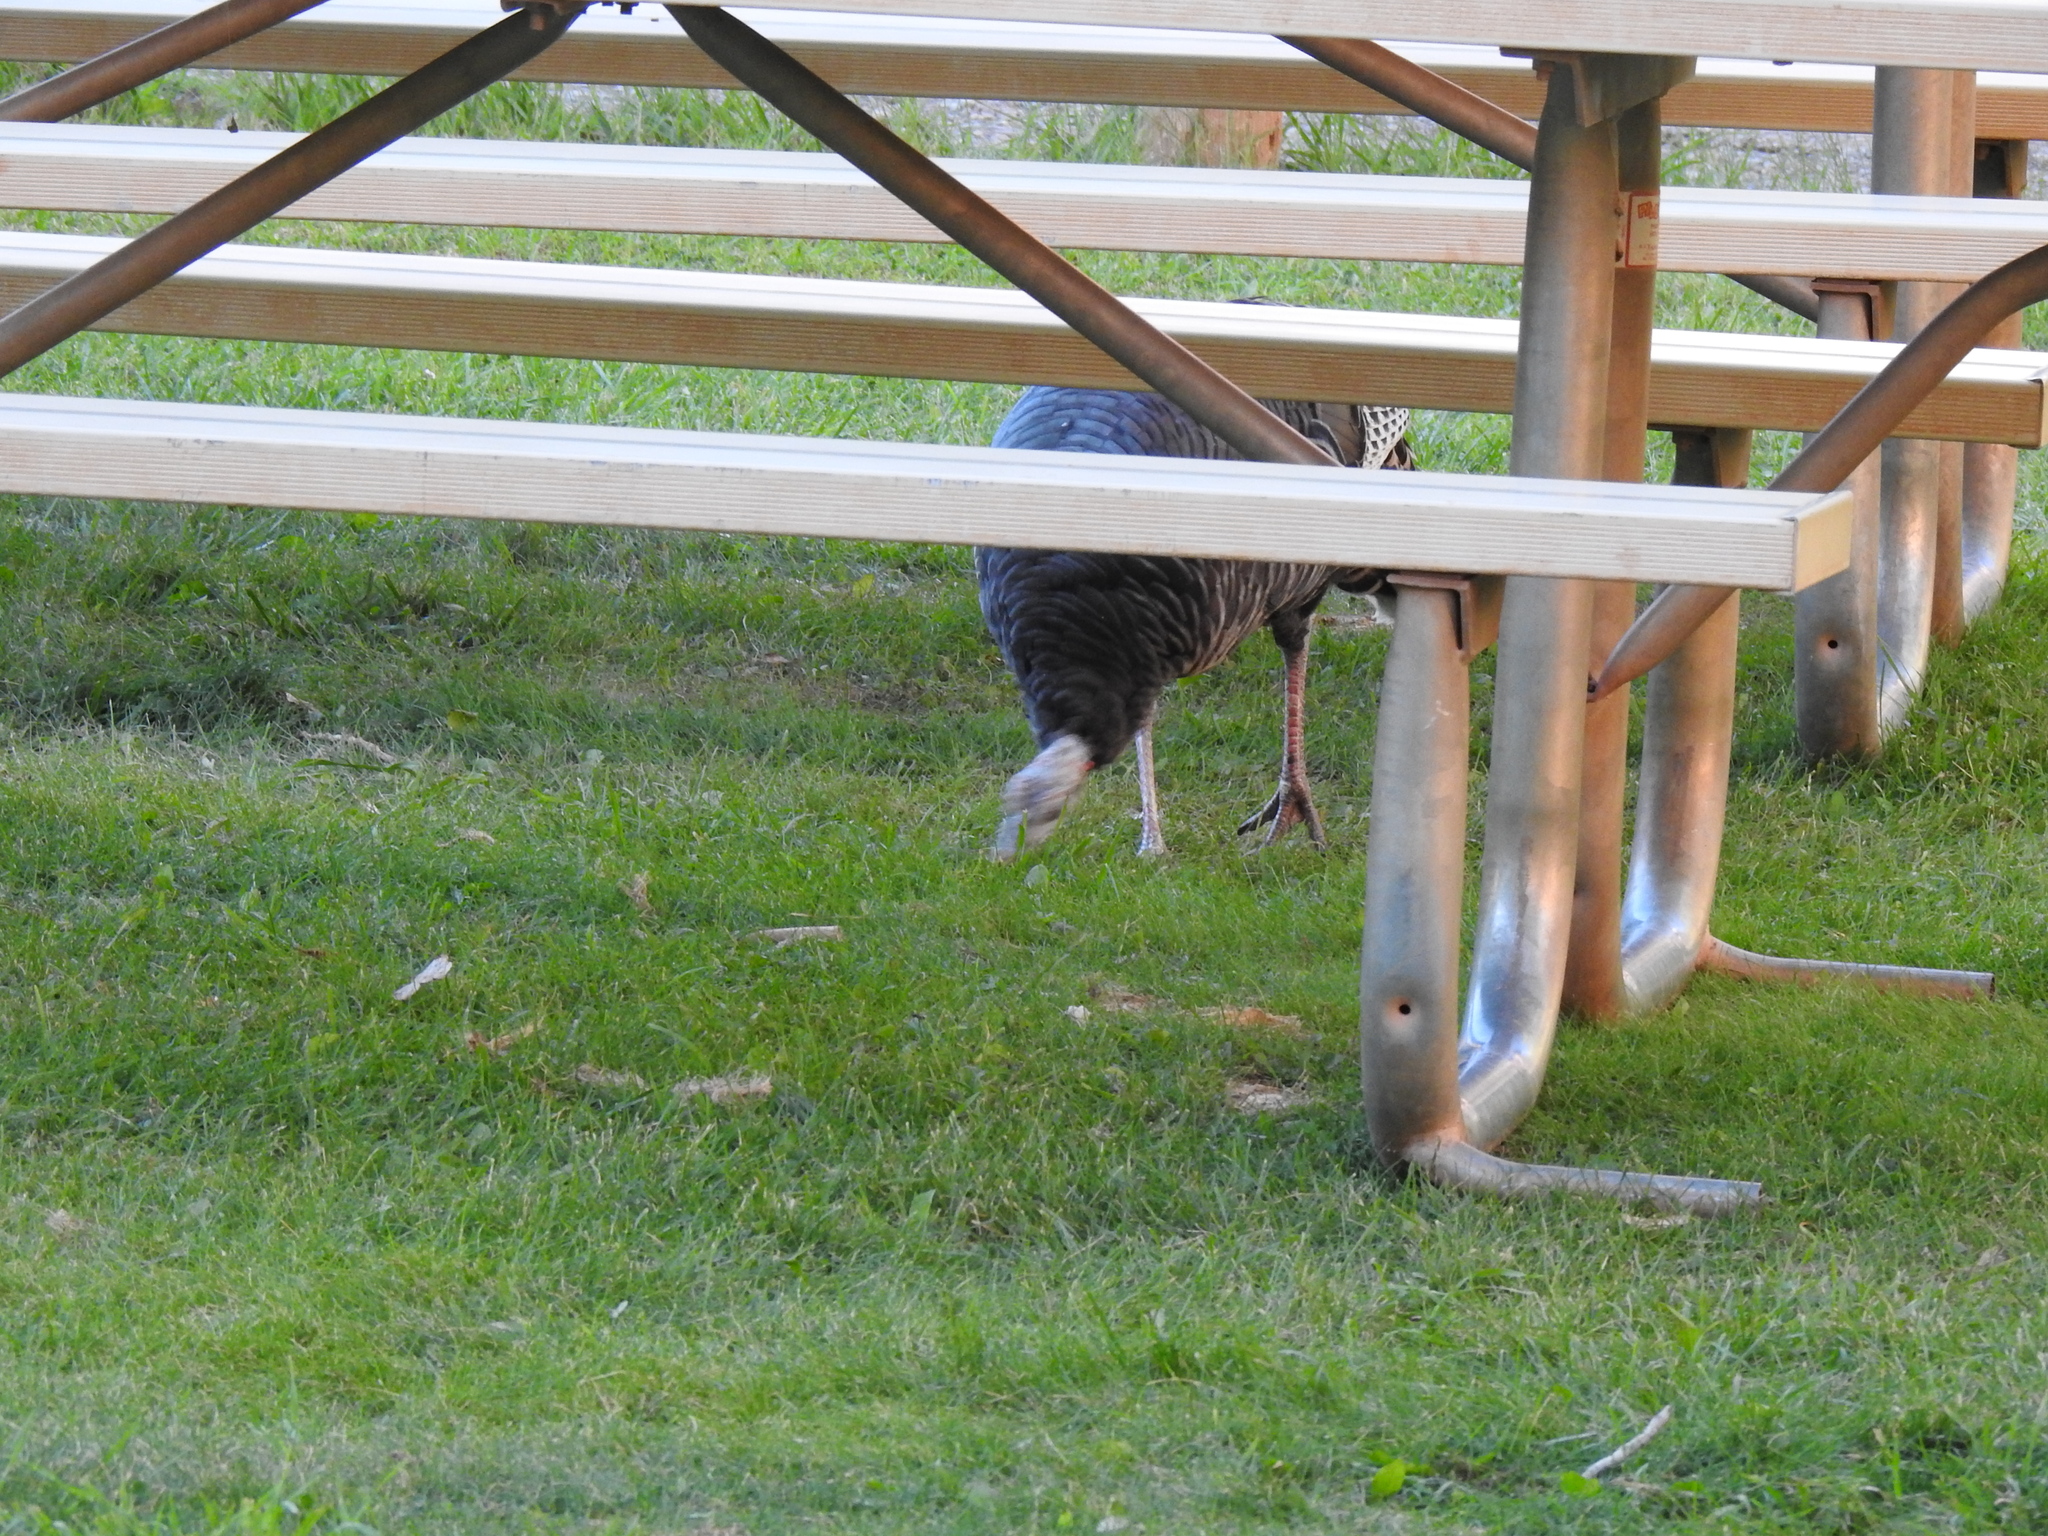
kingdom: Animalia
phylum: Chordata
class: Aves
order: Galliformes
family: Phasianidae
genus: Meleagris
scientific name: Meleagris gallopavo
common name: Wild turkey
